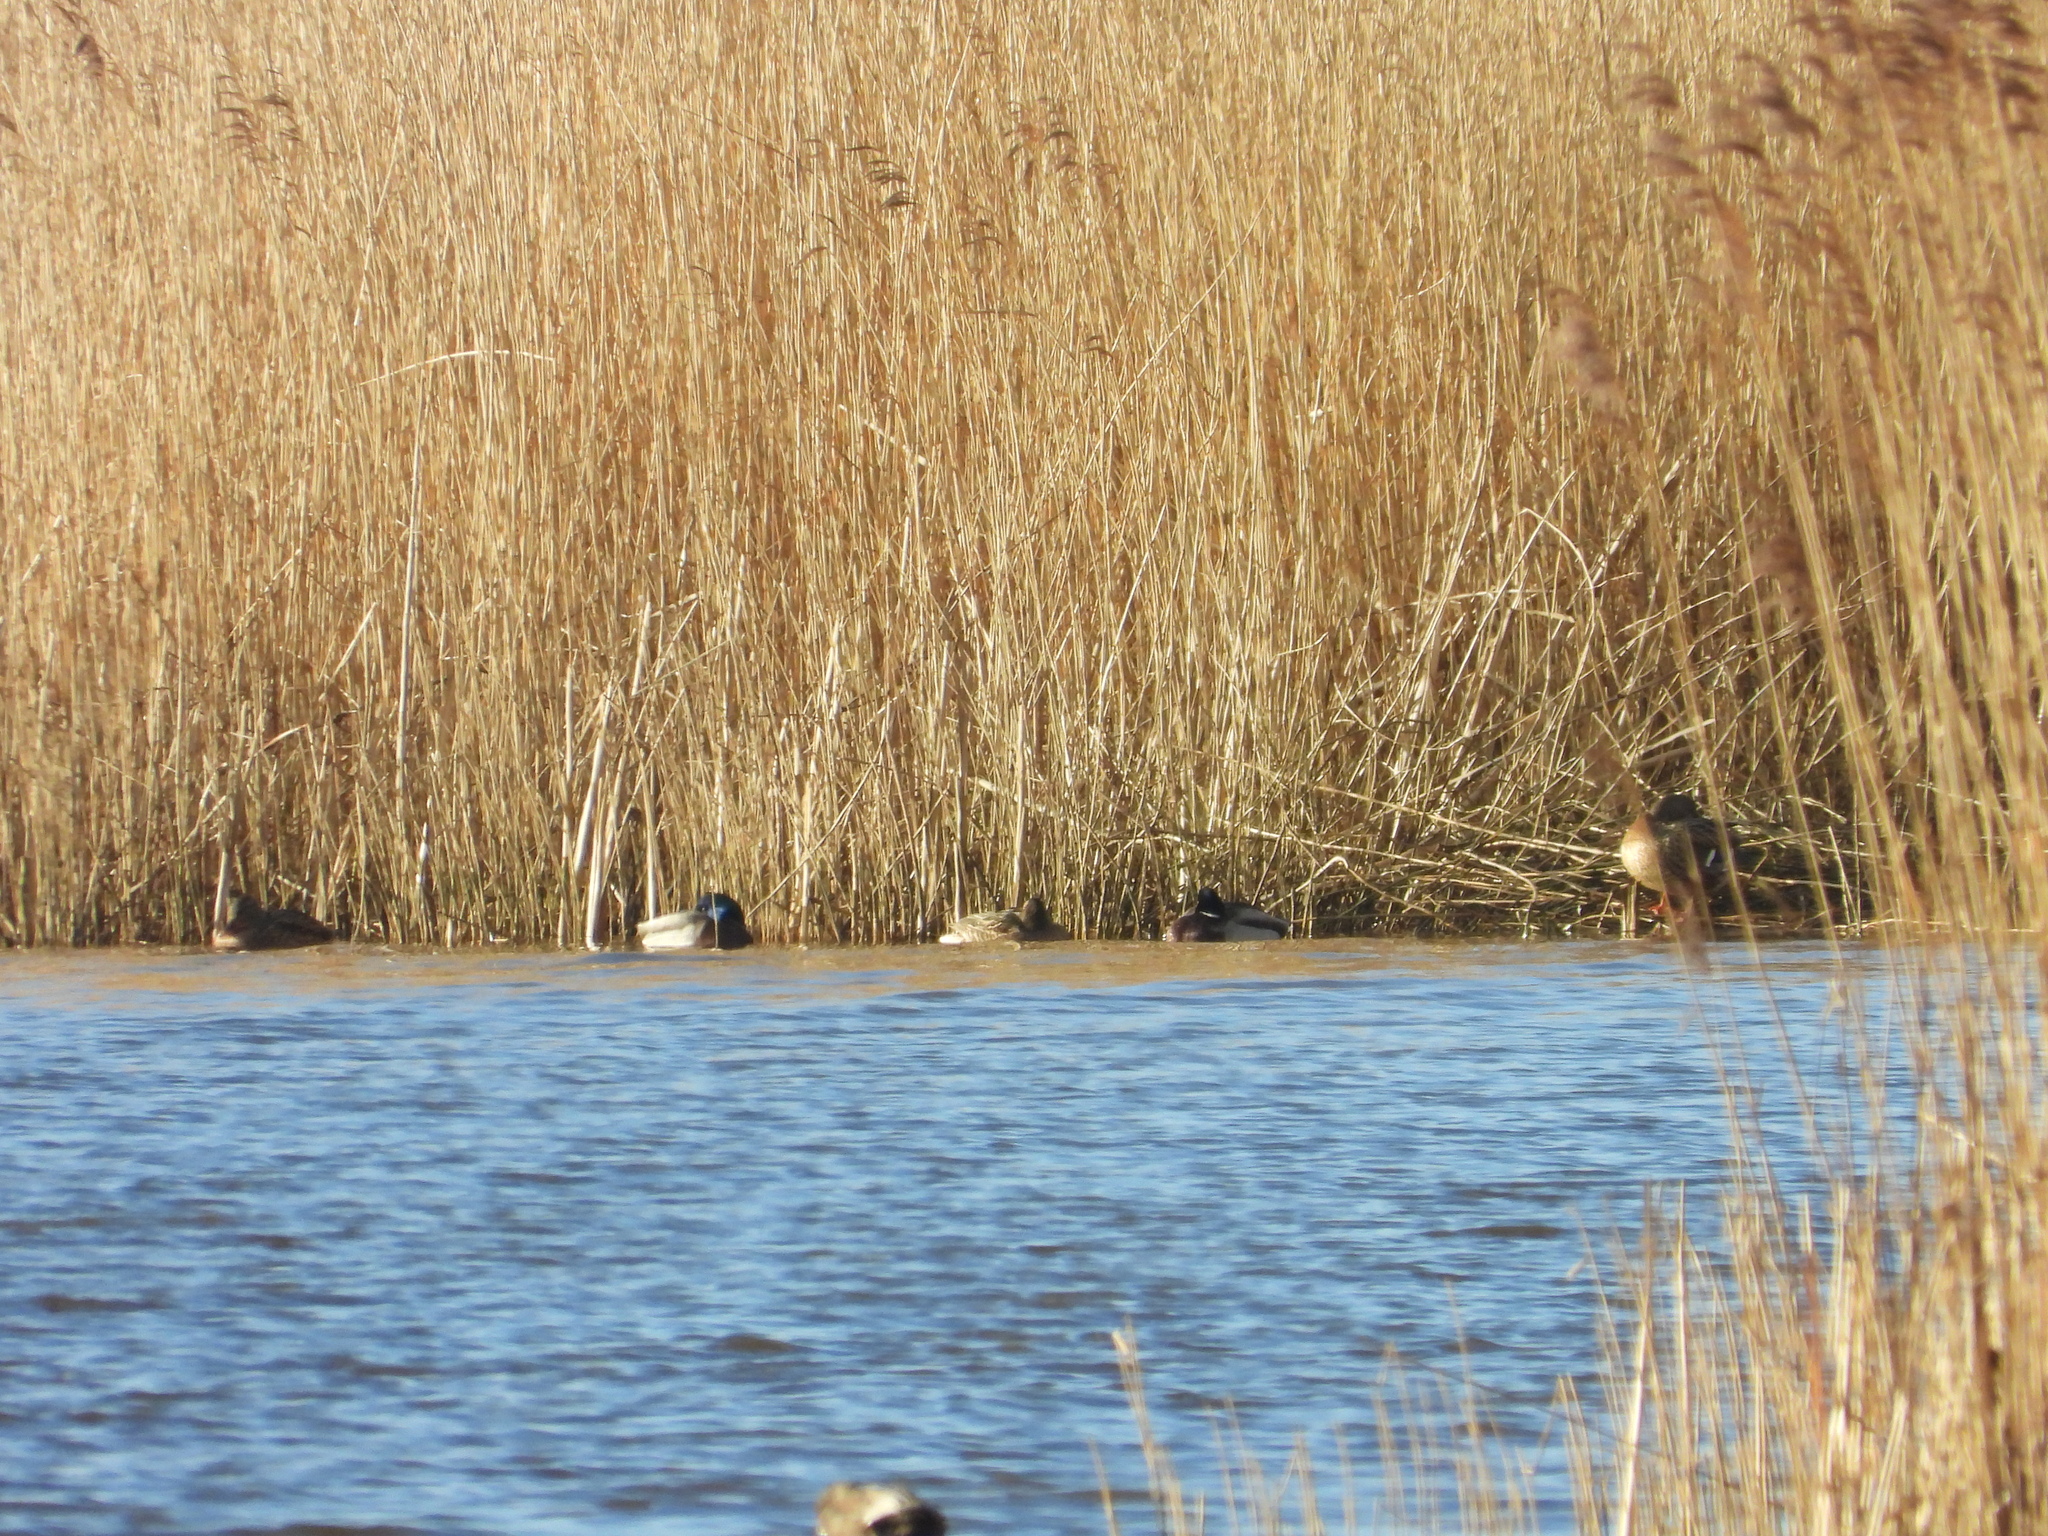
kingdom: Animalia
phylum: Chordata
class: Aves
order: Anseriformes
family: Anatidae
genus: Anas
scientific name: Anas platyrhynchos
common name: Mallard
